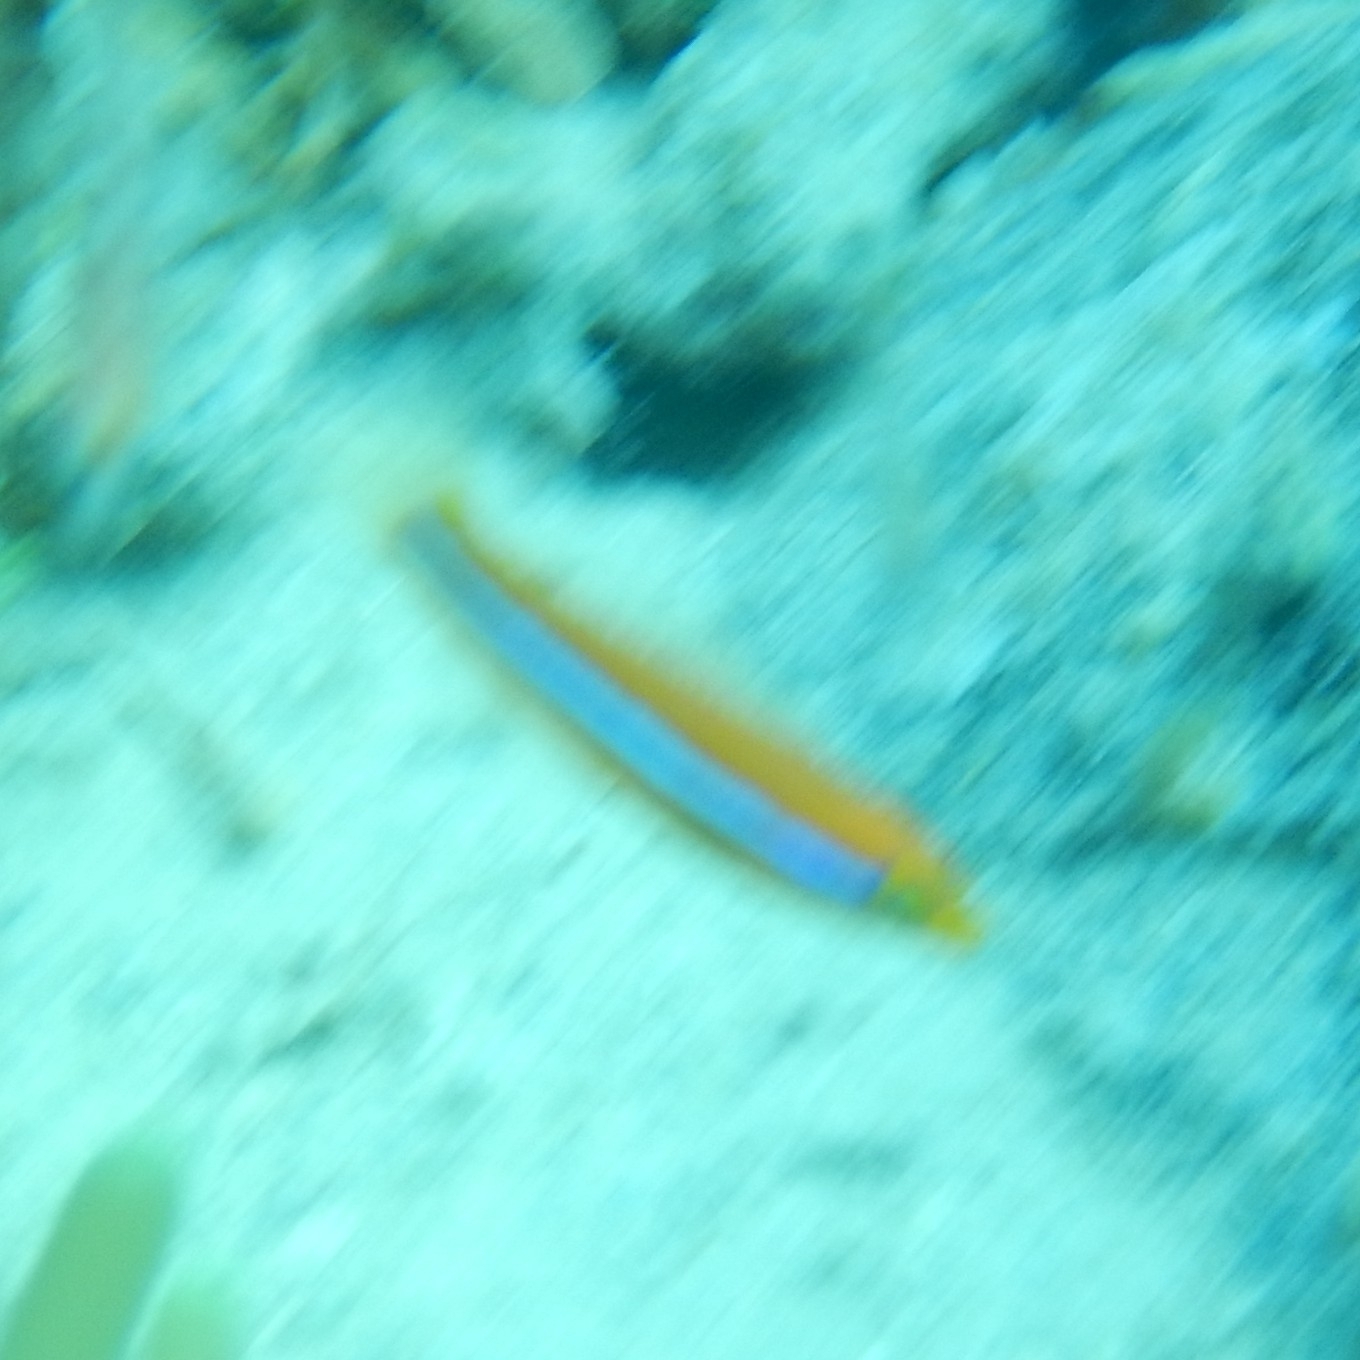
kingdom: Animalia
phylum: Chordata
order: Perciformes
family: Labridae
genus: Halichoeres
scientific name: Halichoeres garnoti
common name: Yellowhead wrasse
